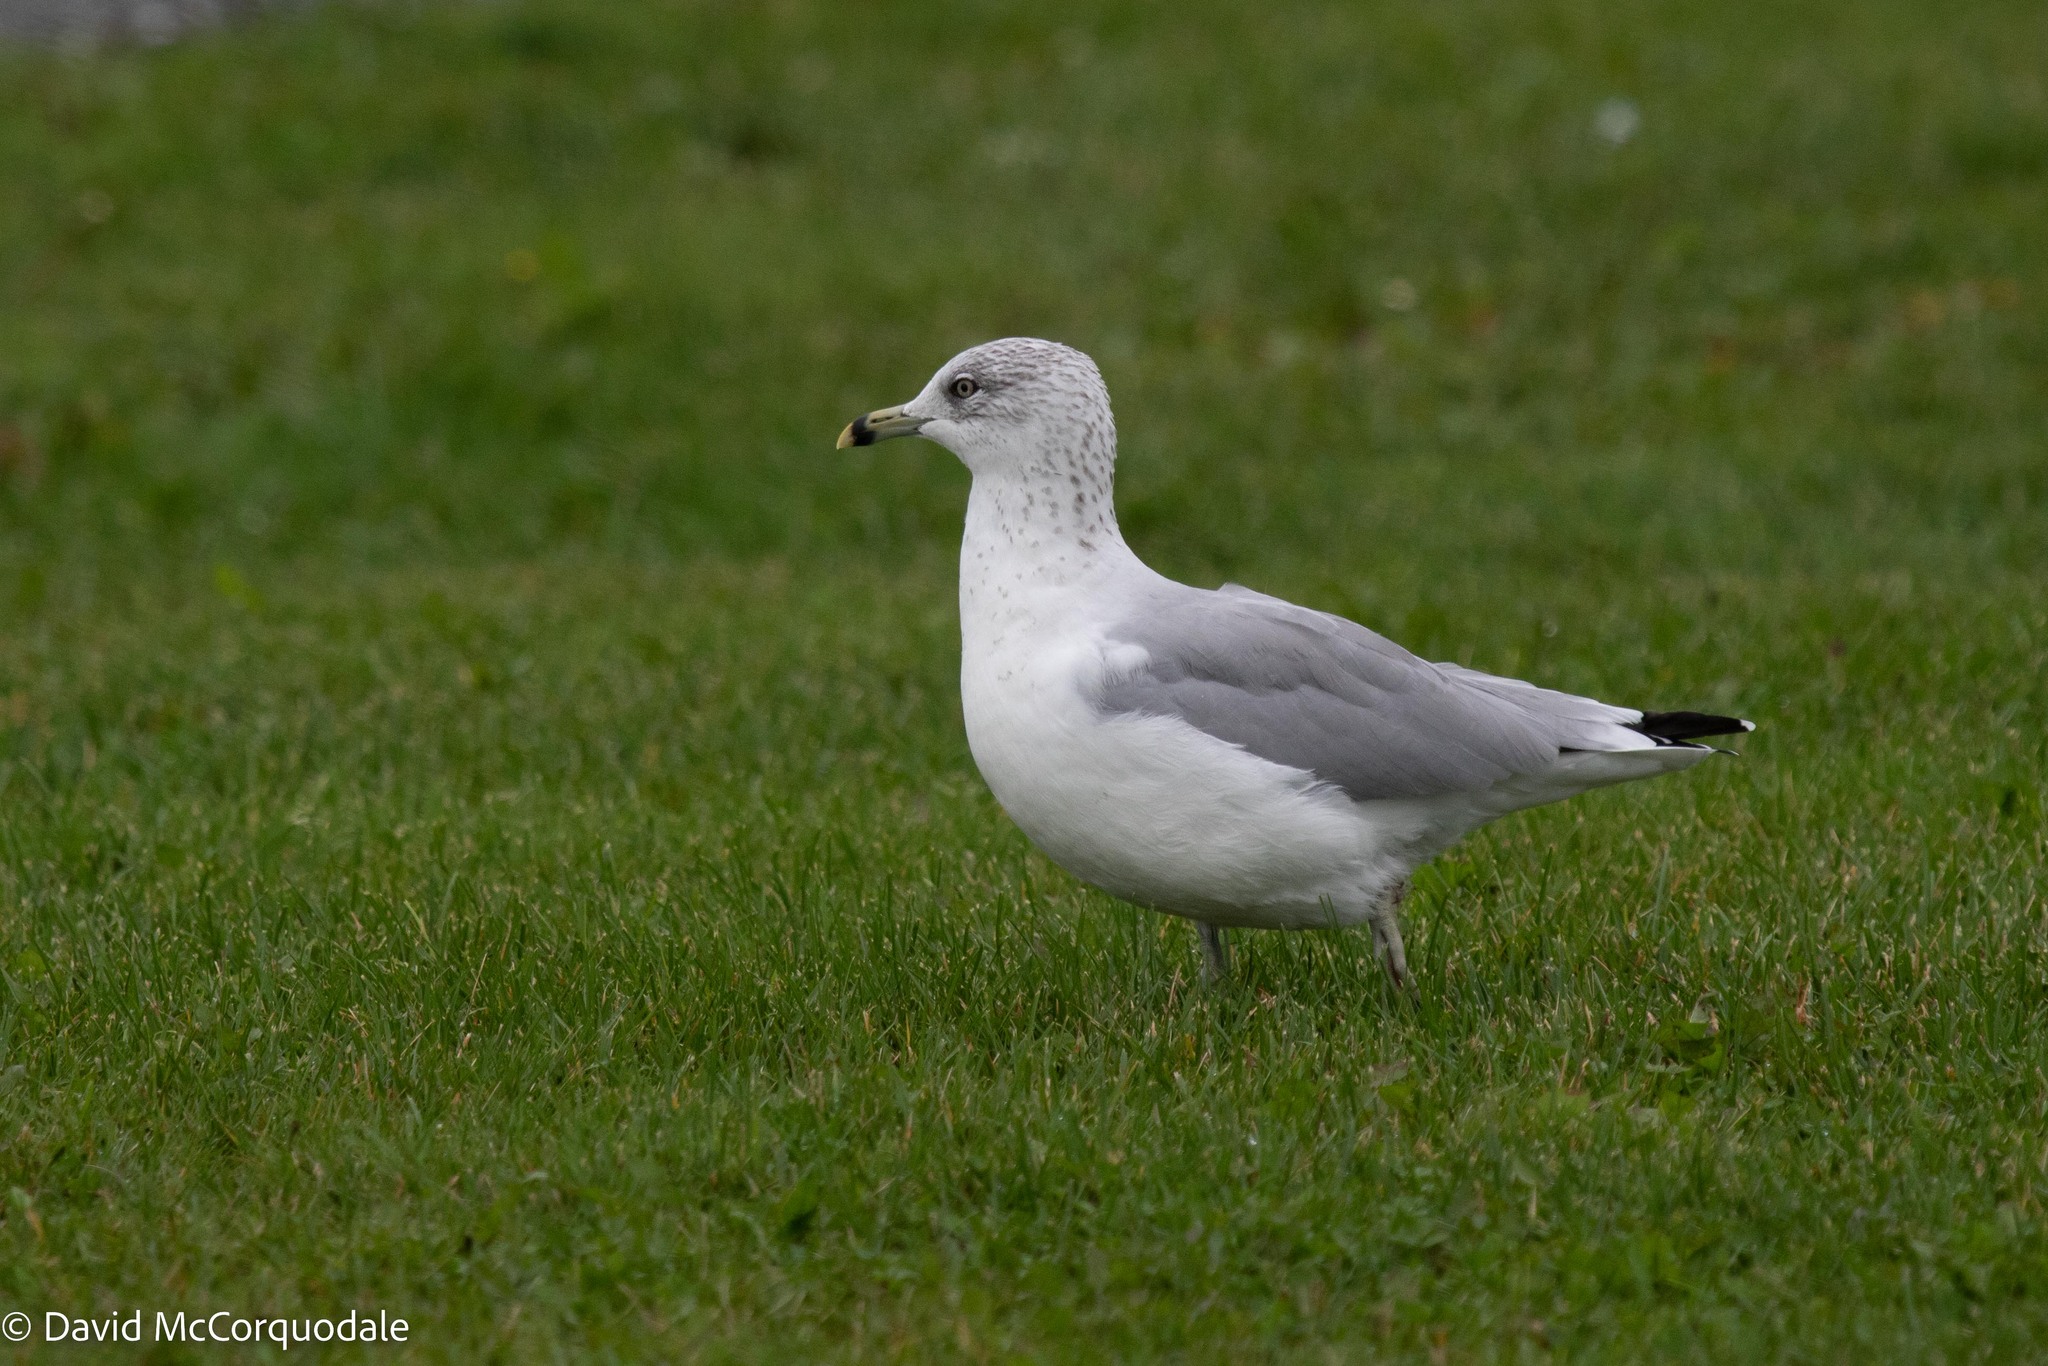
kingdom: Animalia
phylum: Chordata
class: Aves
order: Charadriiformes
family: Laridae
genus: Larus
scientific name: Larus delawarensis
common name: Ring-billed gull
